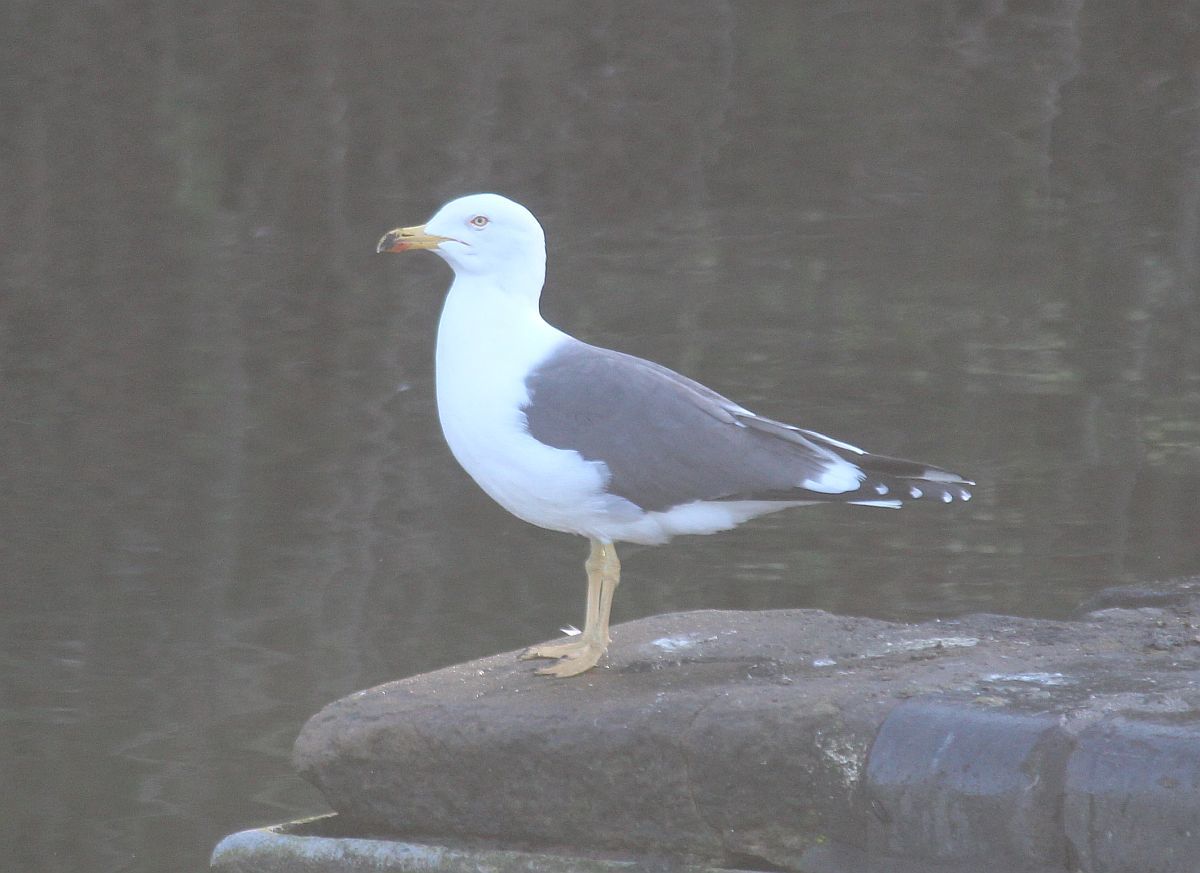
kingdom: Animalia
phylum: Chordata
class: Aves
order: Charadriiformes
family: Laridae
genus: Larus
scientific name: Larus fuscus
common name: Lesser black-backed gull
